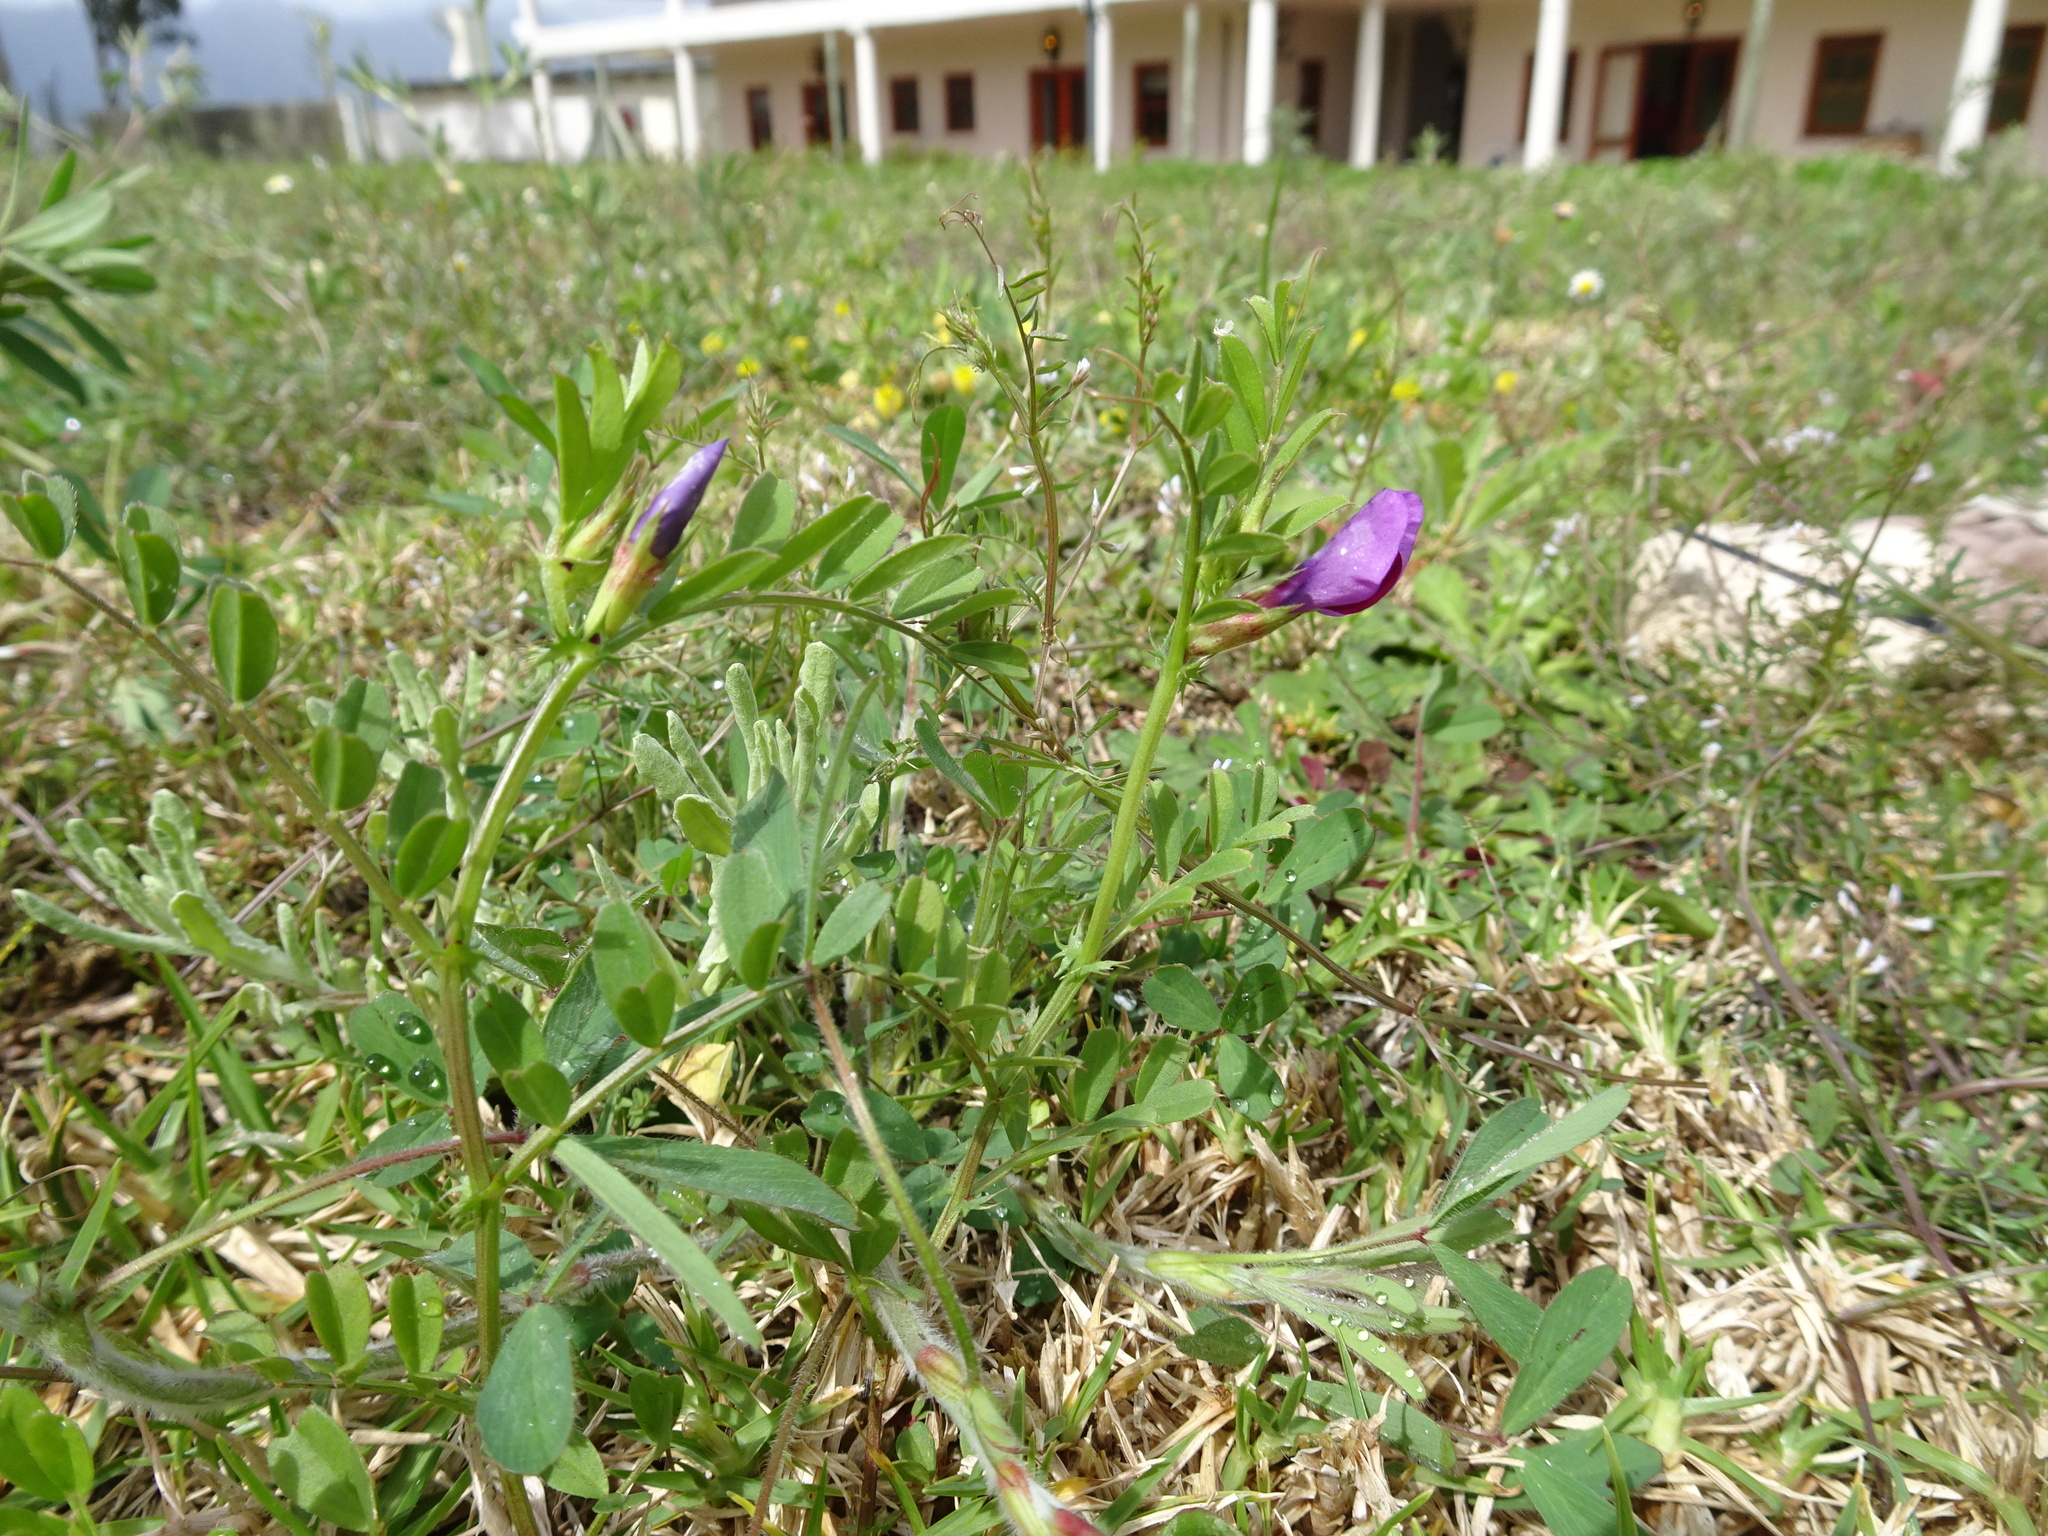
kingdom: Plantae
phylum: Tracheophyta
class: Magnoliopsida
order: Fabales
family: Fabaceae
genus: Vicia
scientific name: Vicia sativa
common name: Garden vetch
